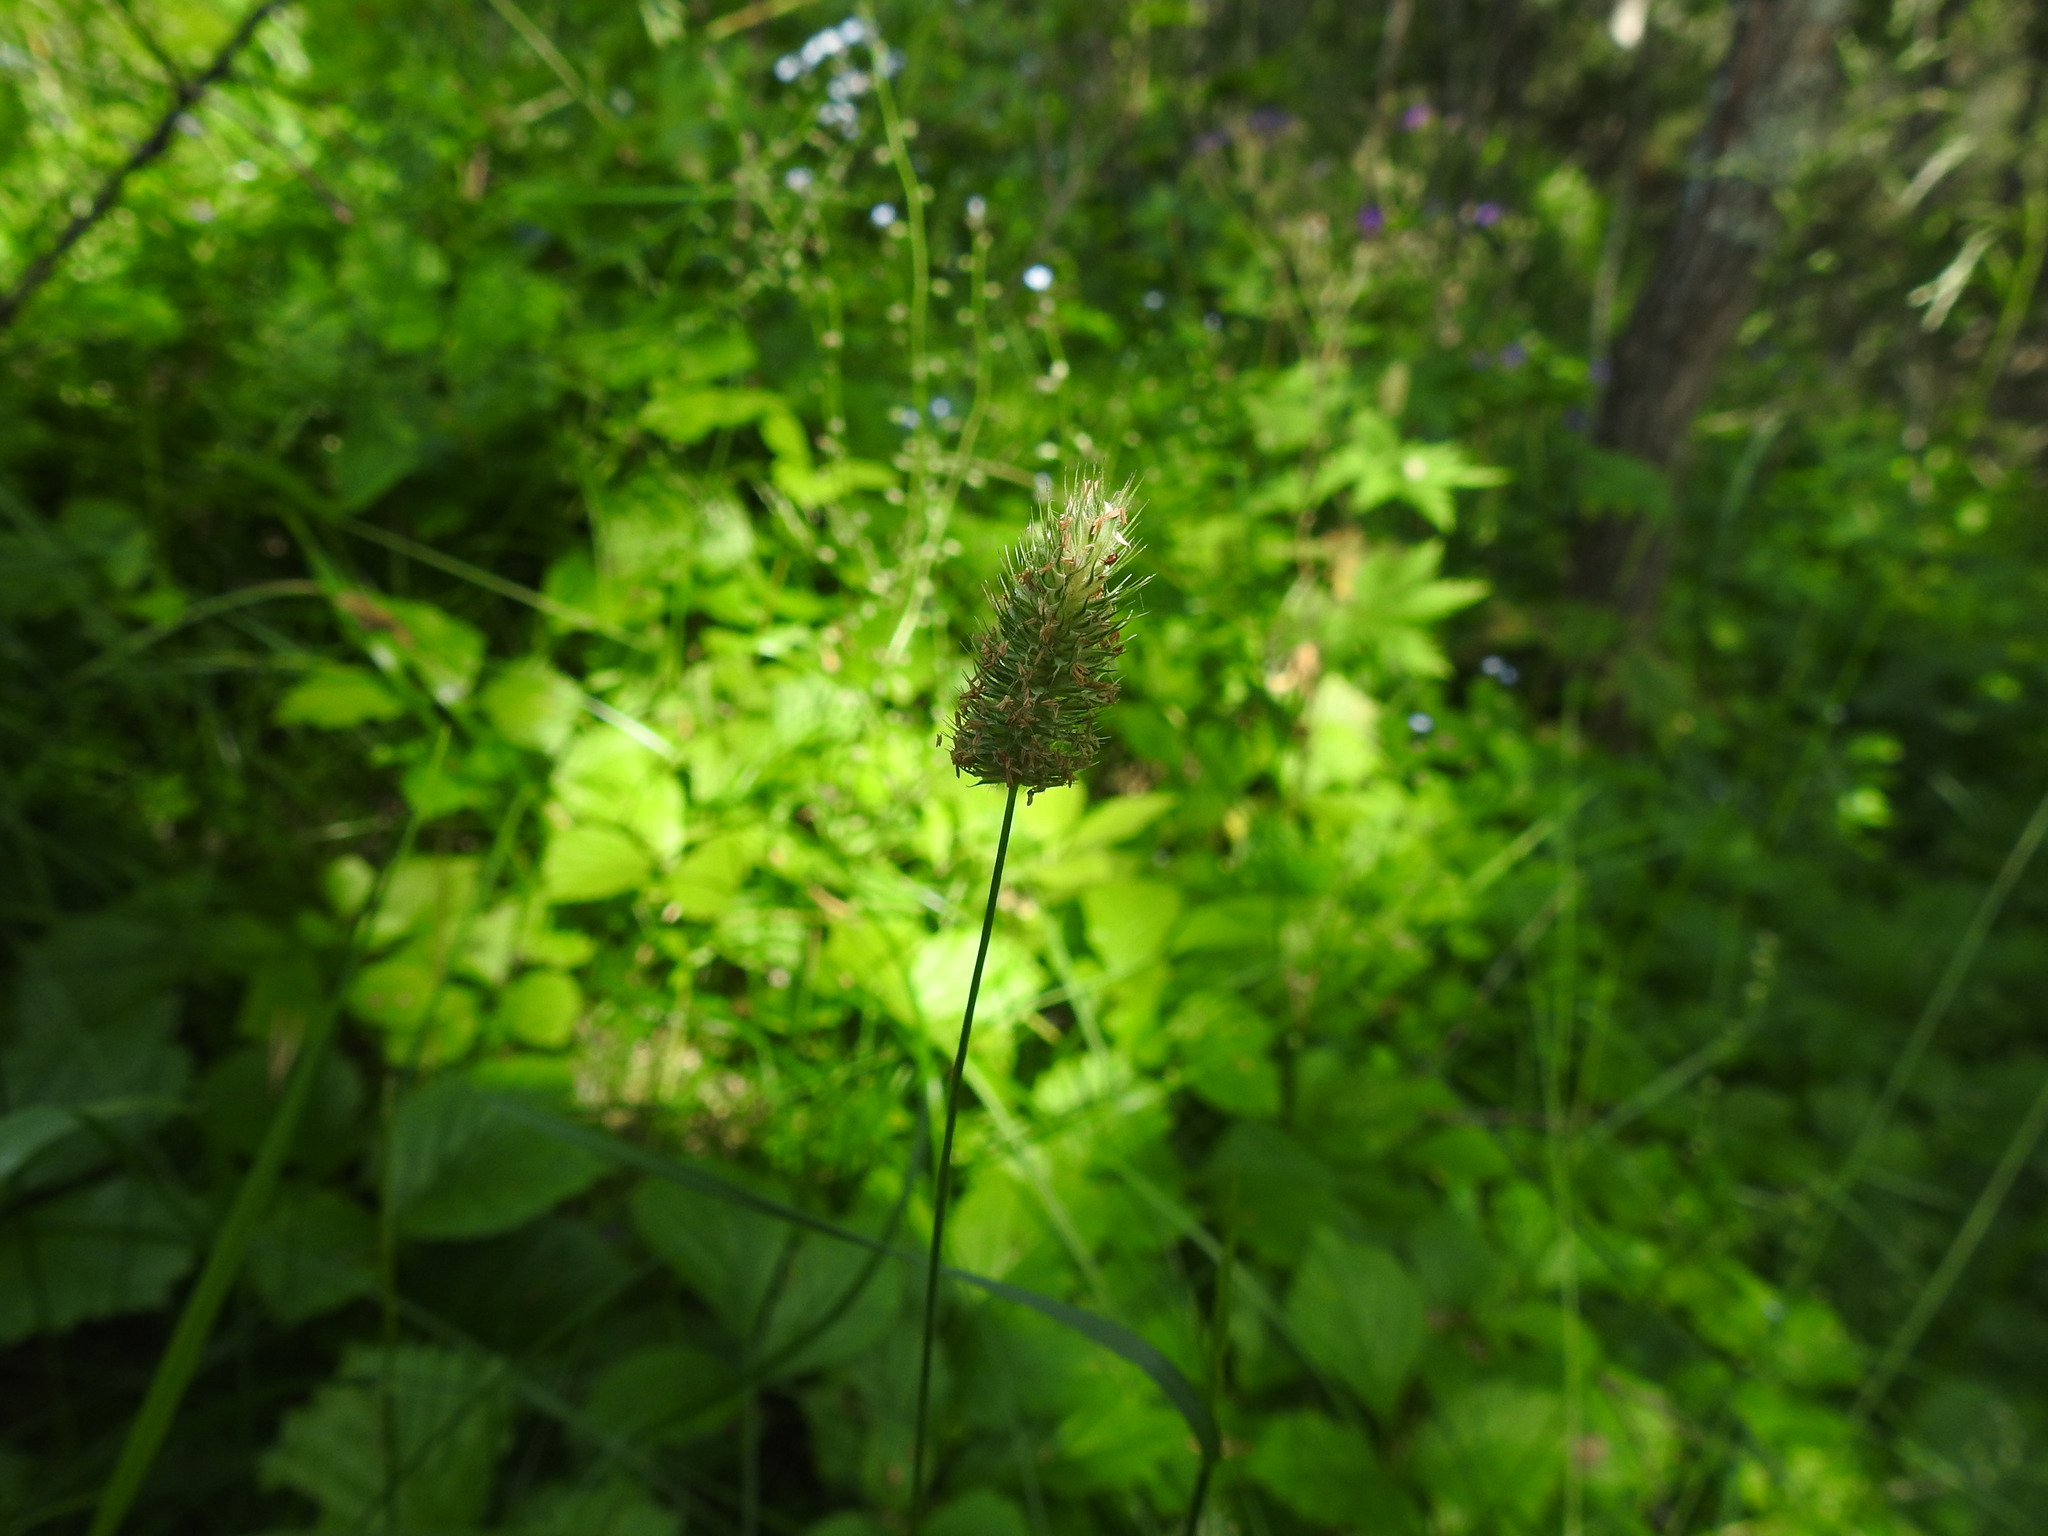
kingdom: Plantae
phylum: Tracheophyta
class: Liliopsida
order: Poales
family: Poaceae
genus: Phleum
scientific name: Phleum alpinum
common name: Alpine cat's-tail
